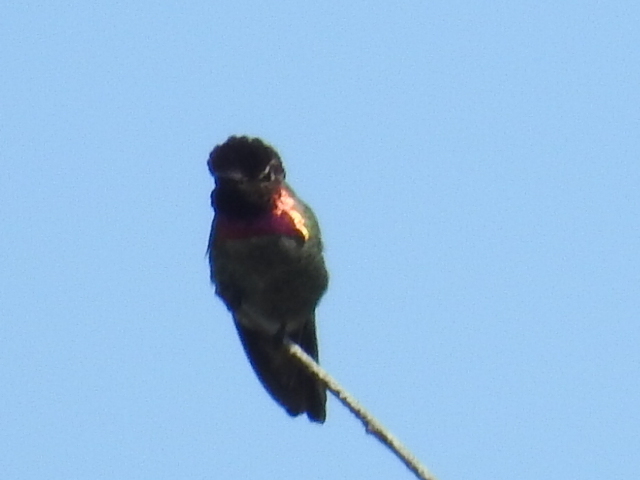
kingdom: Animalia
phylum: Chordata
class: Aves
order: Apodiformes
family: Trochilidae
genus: Calypte
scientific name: Calypte anna
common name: Anna's hummingbird
